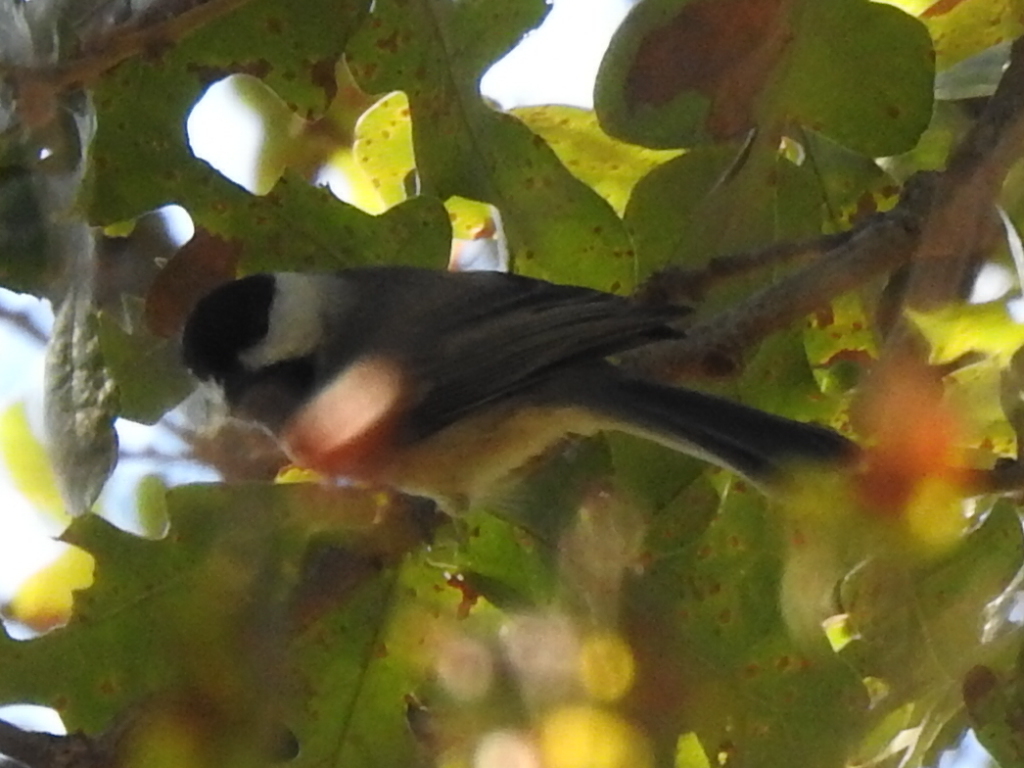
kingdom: Animalia
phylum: Chordata
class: Aves
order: Passeriformes
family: Paridae
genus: Poecile
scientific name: Poecile carolinensis
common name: Carolina chickadee
